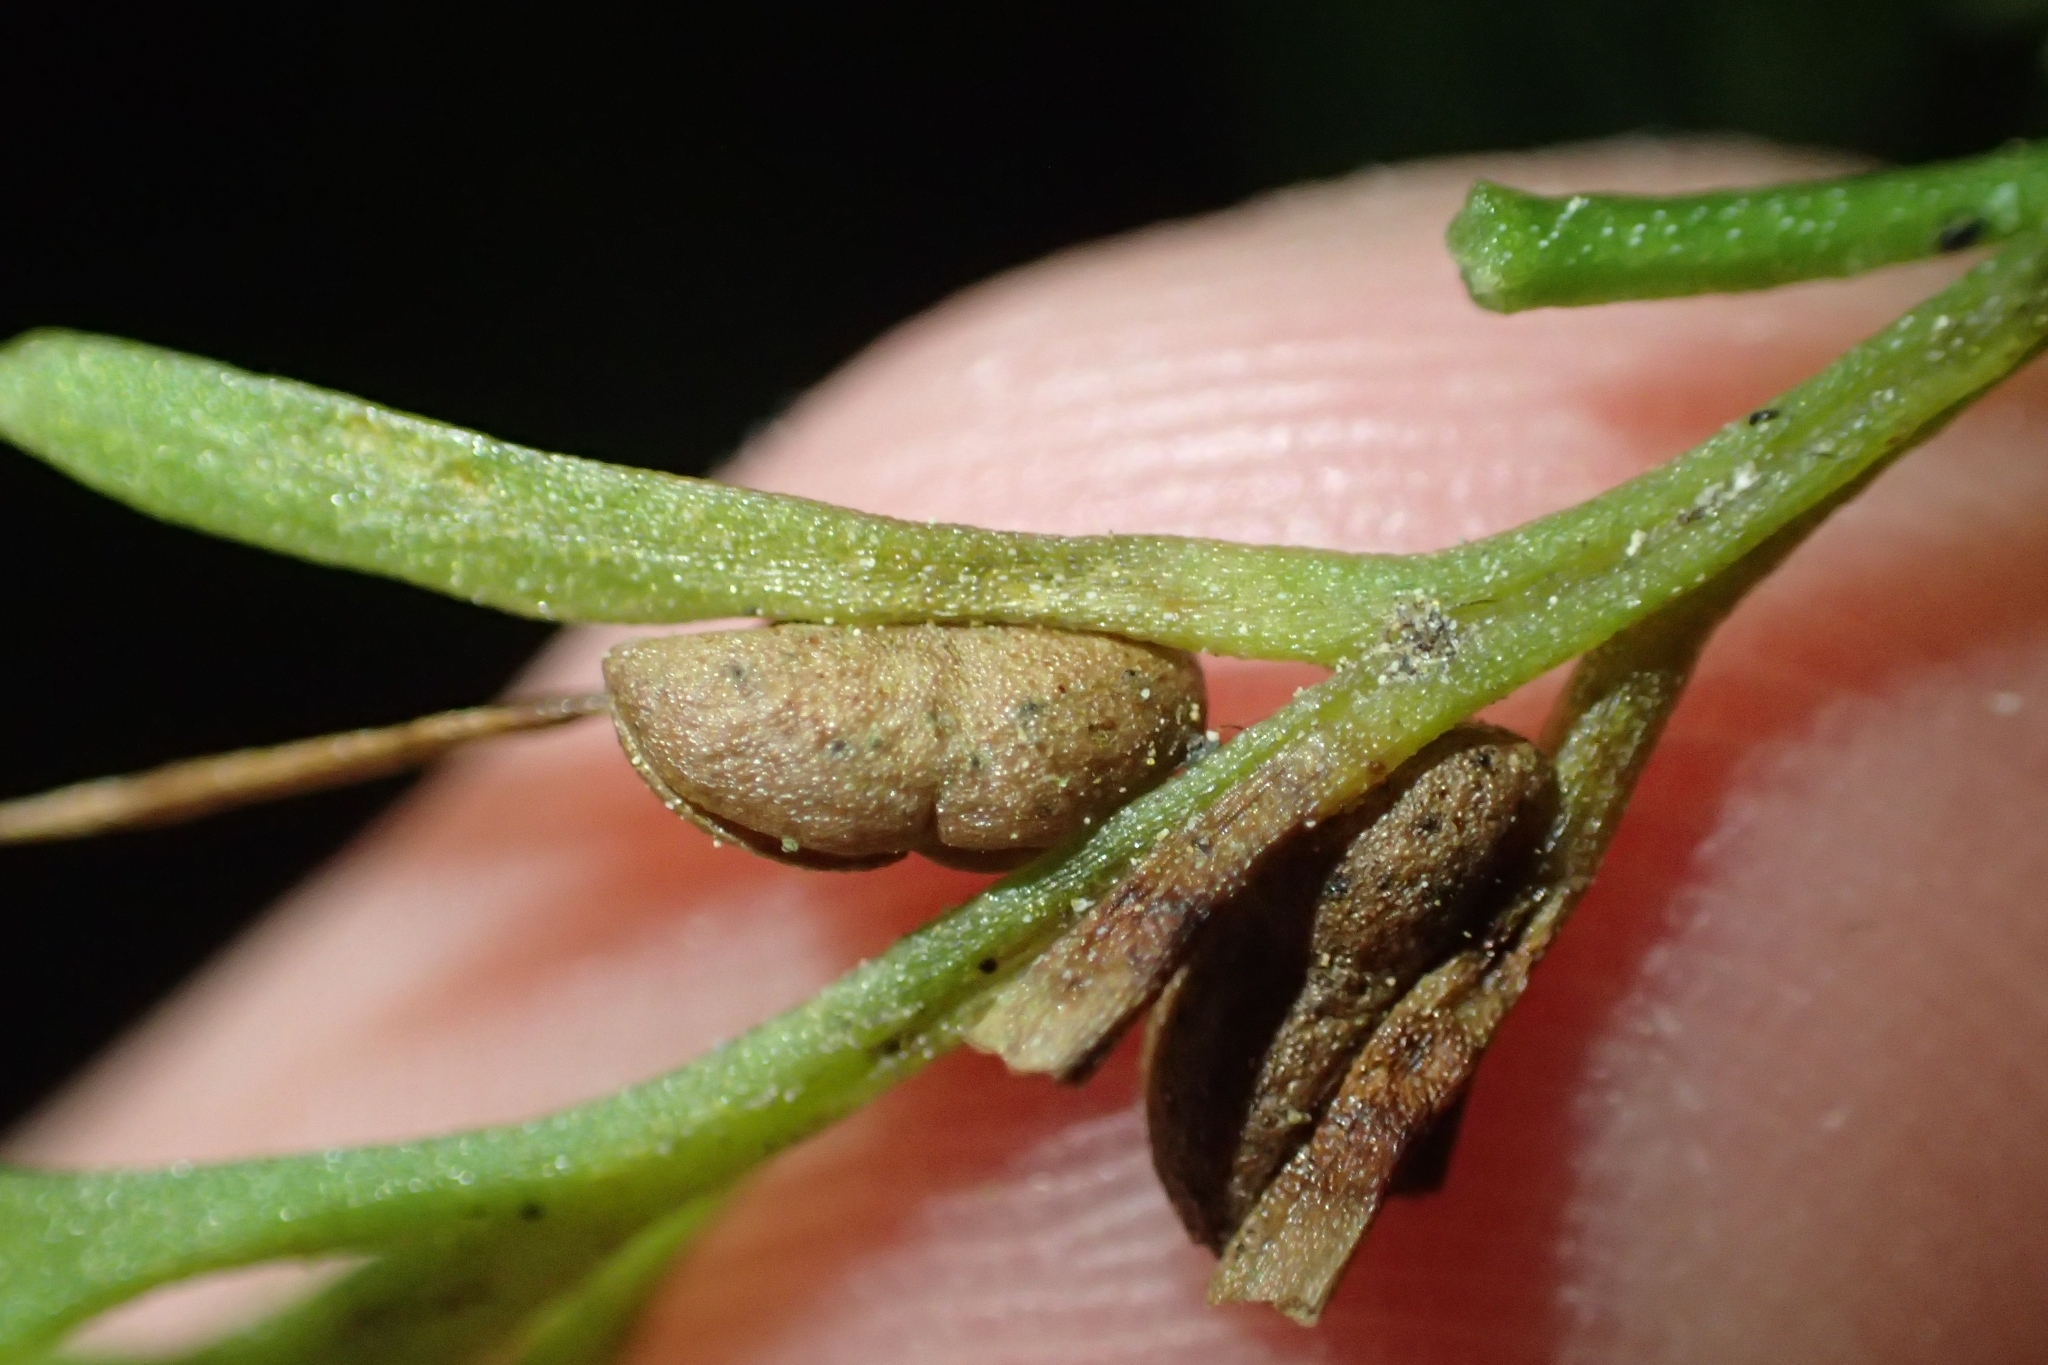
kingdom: Plantae
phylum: Tracheophyta
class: Polypodiopsida
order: Psilotales
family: Psilotaceae
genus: Tmesipteris
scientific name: Tmesipteris elongata
